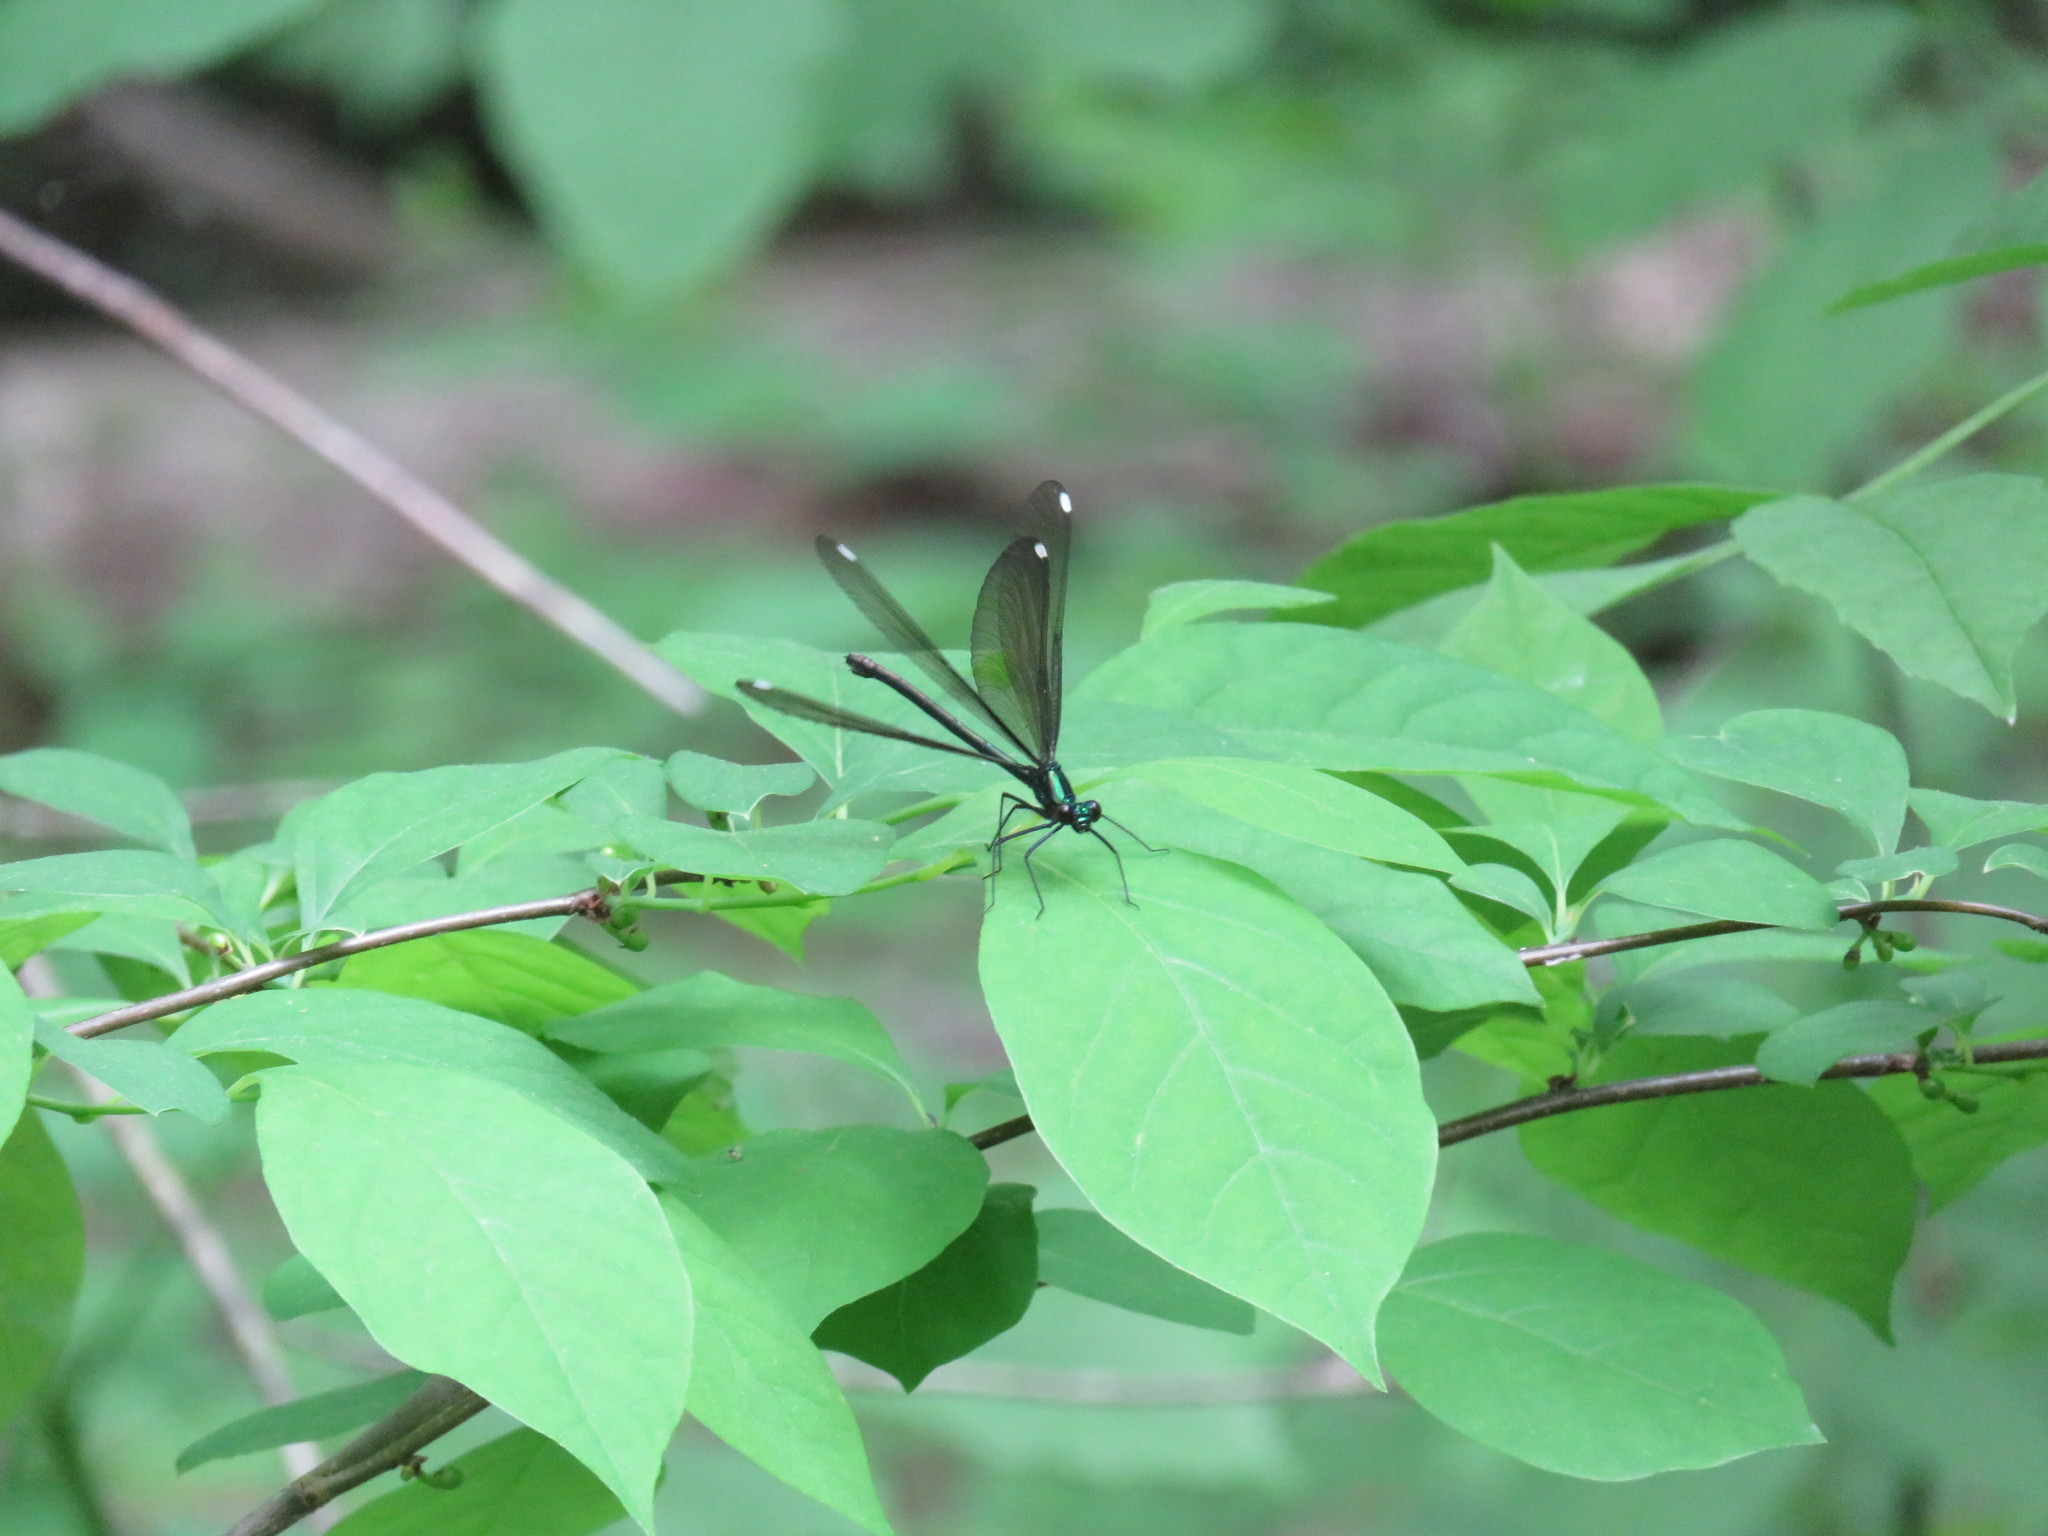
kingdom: Animalia
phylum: Arthropoda
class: Insecta
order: Odonata
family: Calopterygidae
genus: Calopteryx
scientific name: Calopteryx maculata
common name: Ebony jewelwing
